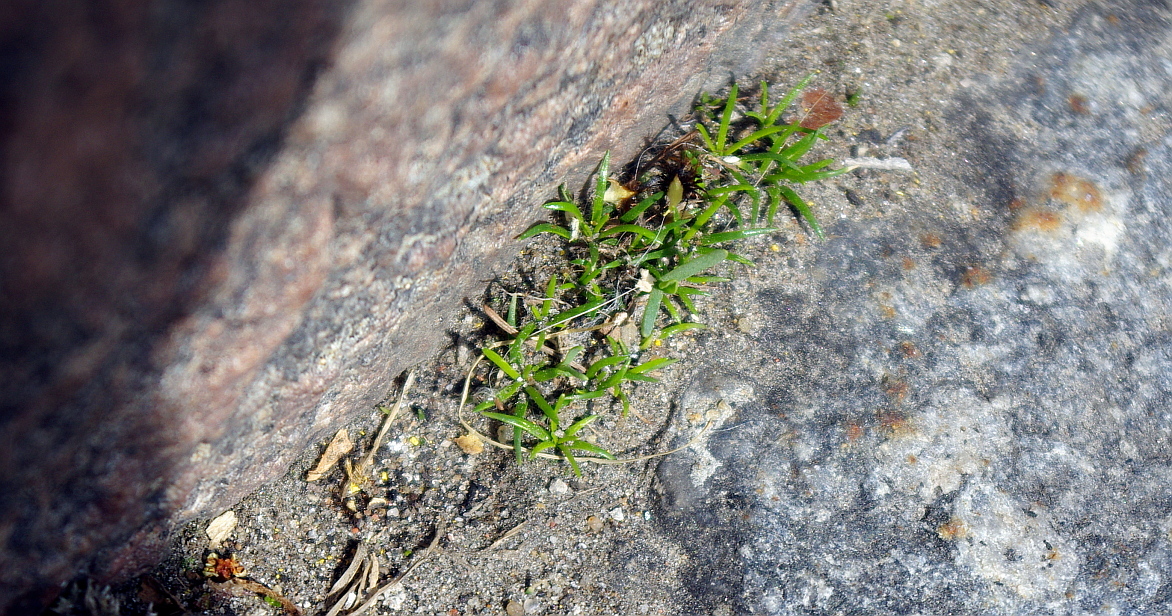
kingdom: Plantae
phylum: Tracheophyta
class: Magnoliopsida
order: Caryophyllales
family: Caryophyllaceae
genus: Sagina
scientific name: Sagina procumbens
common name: Procumbent pearlwort
